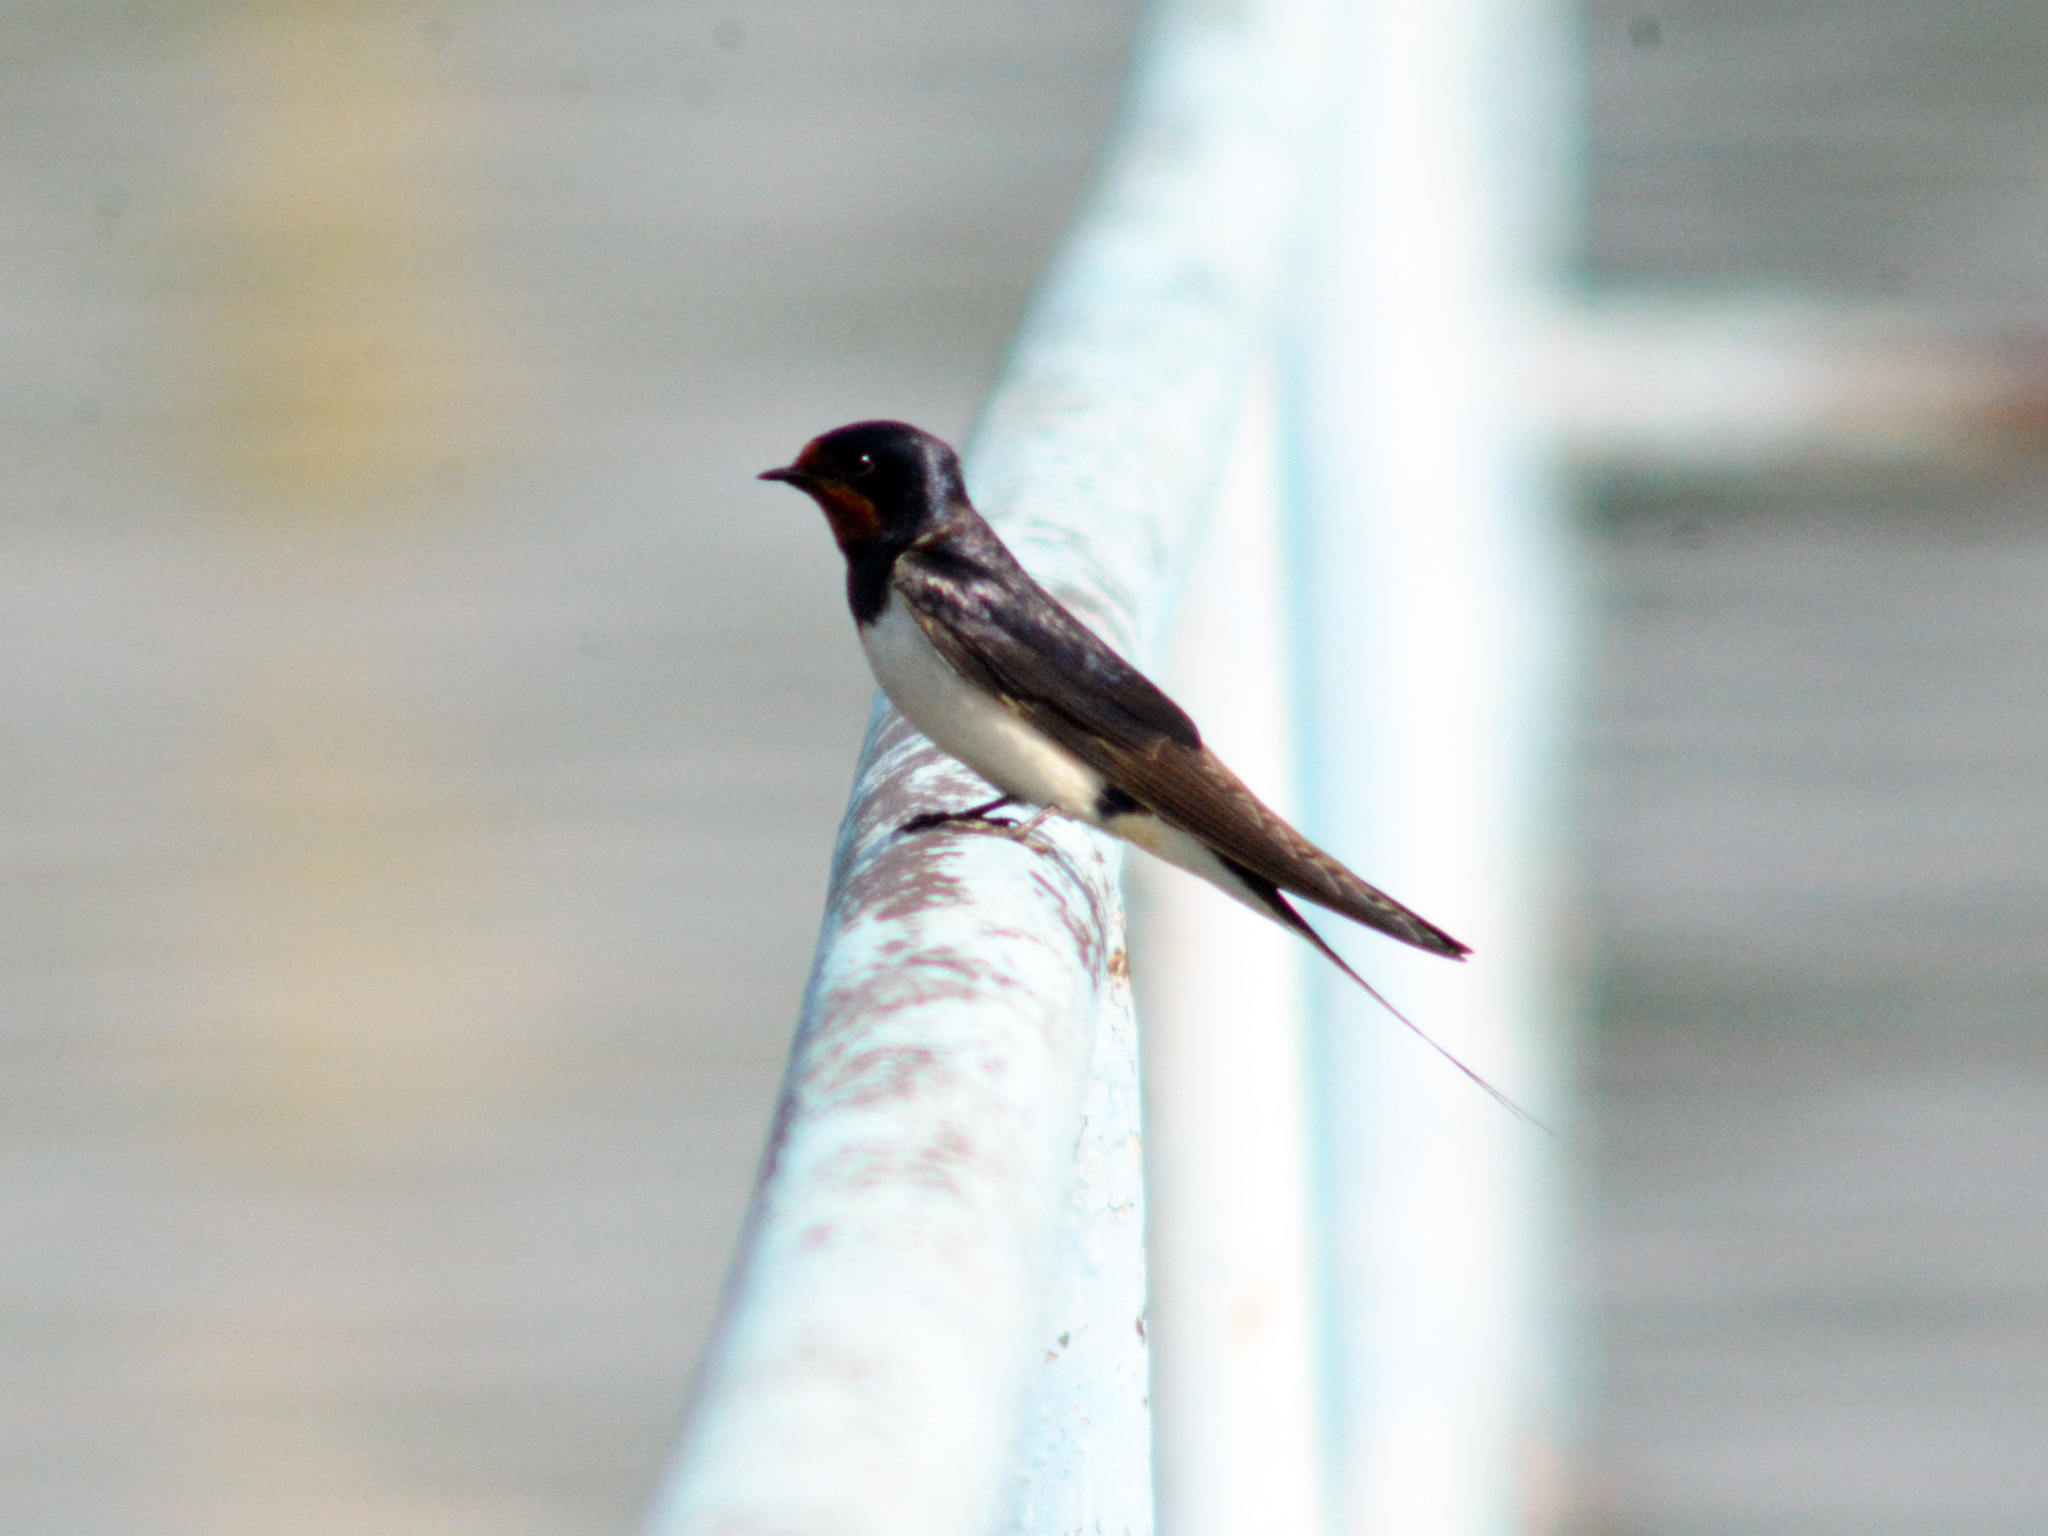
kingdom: Animalia
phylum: Chordata
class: Aves
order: Passeriformes
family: Hirundinidae
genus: Hirundo
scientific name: Hirundo rustica
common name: Barn swallow
